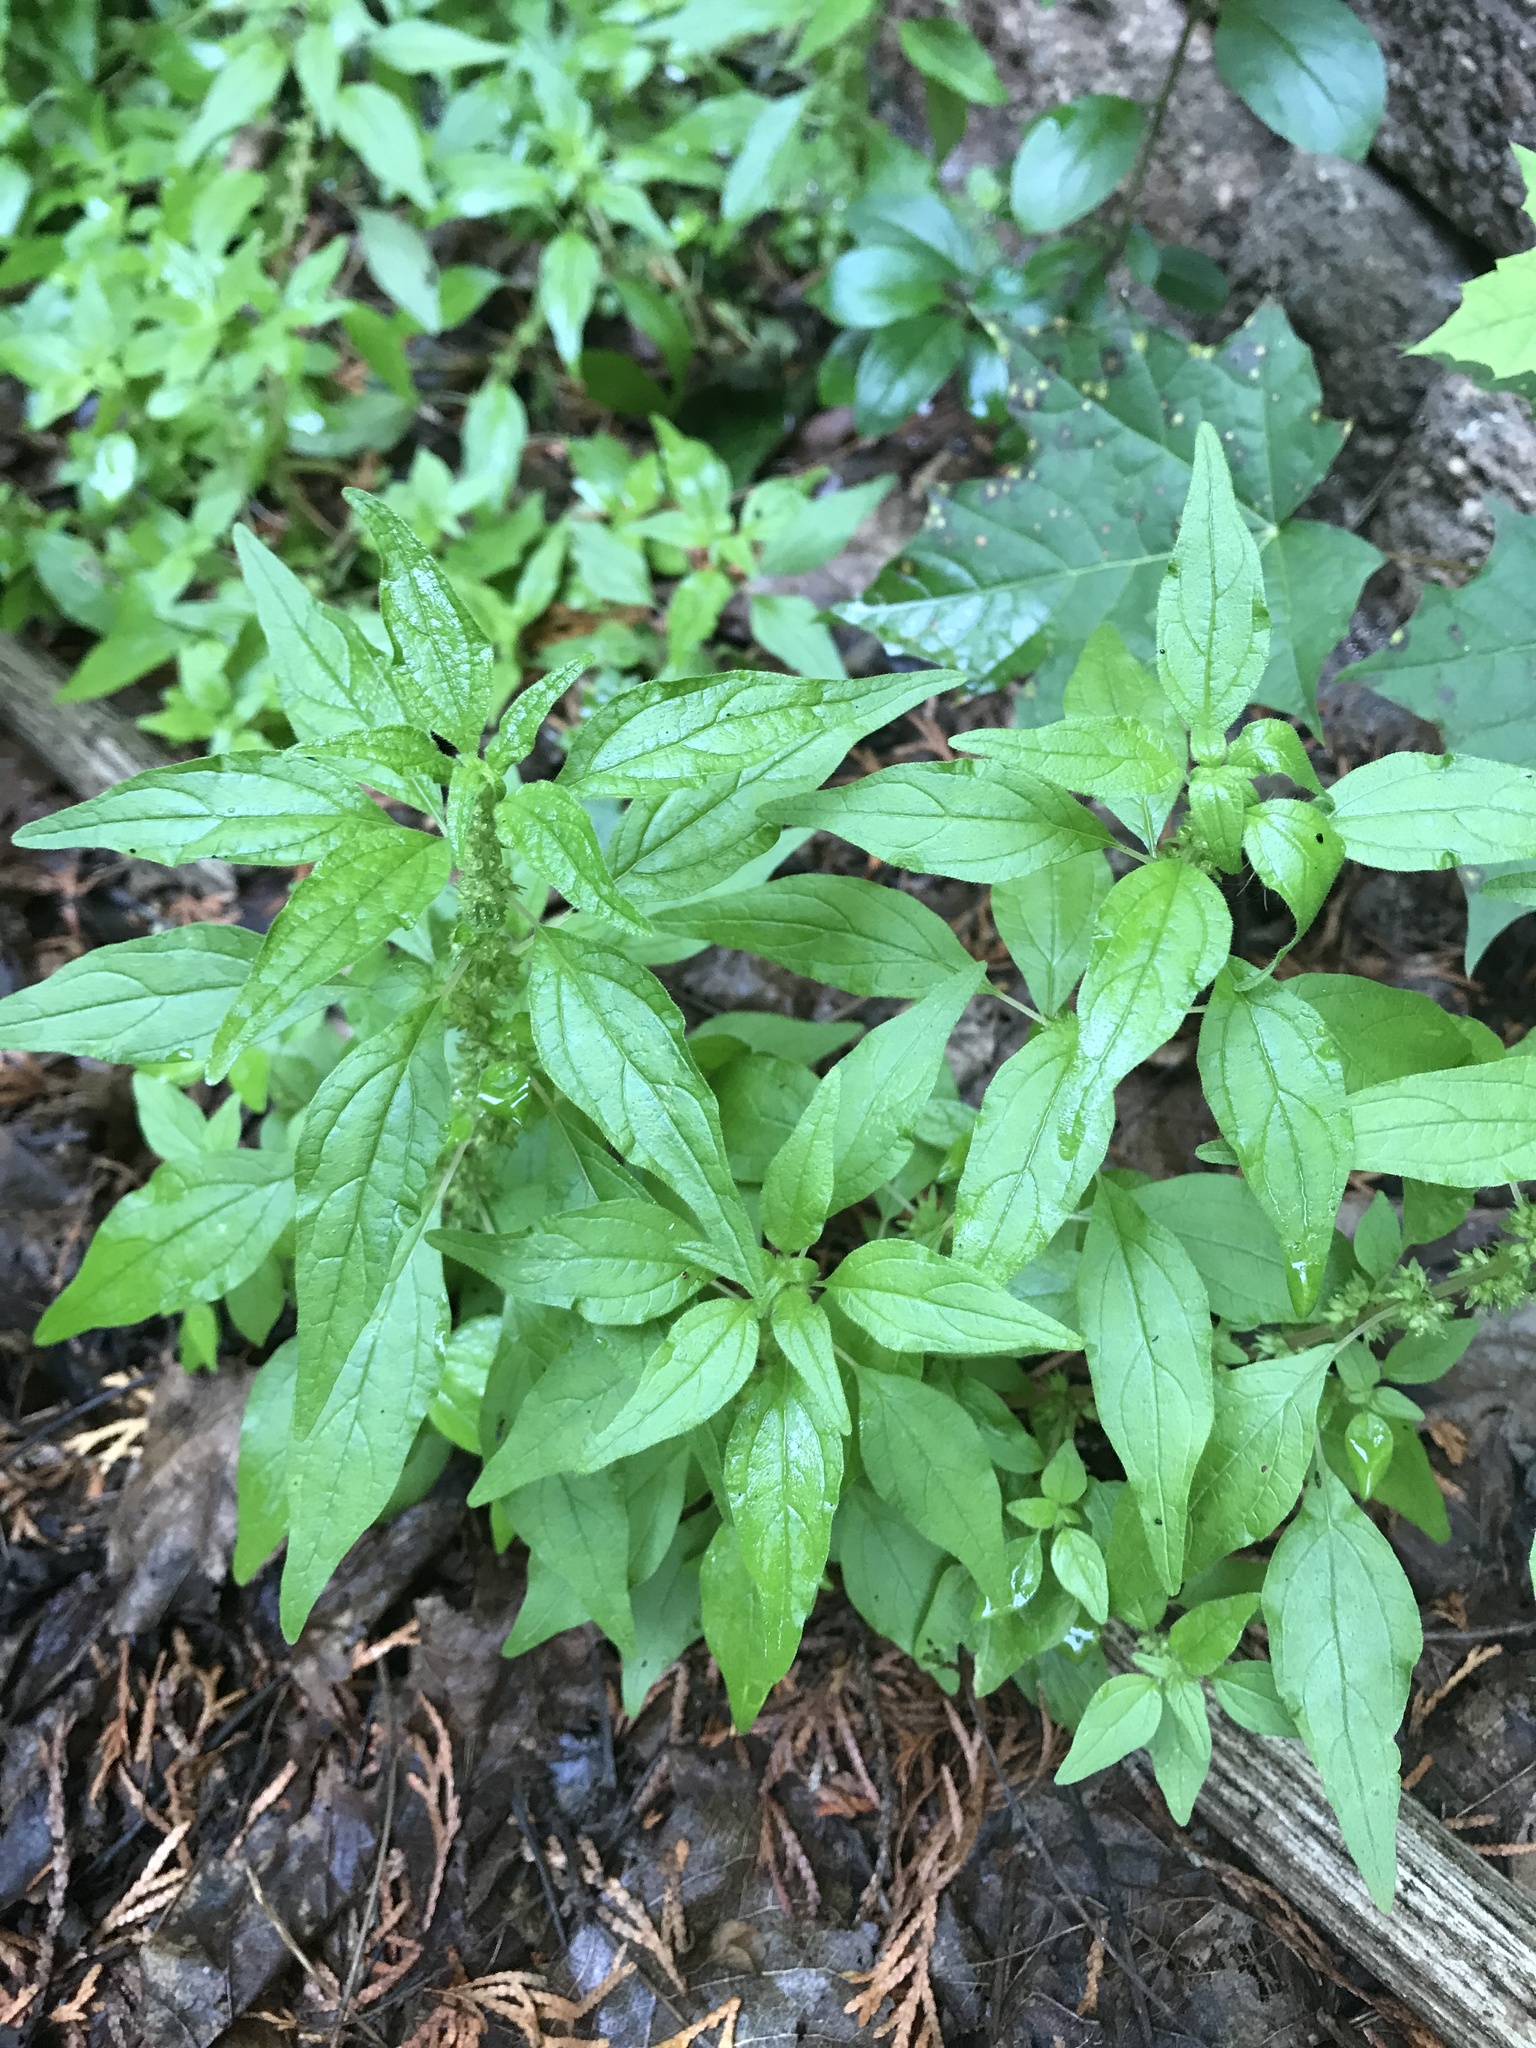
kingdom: Plantae
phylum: Tracheophyta
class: Magnoliopsida
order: Rosales
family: Urticaceae
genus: Parietaria
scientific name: Parietaria pensylvanica
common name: Pennsylvania pellitory
